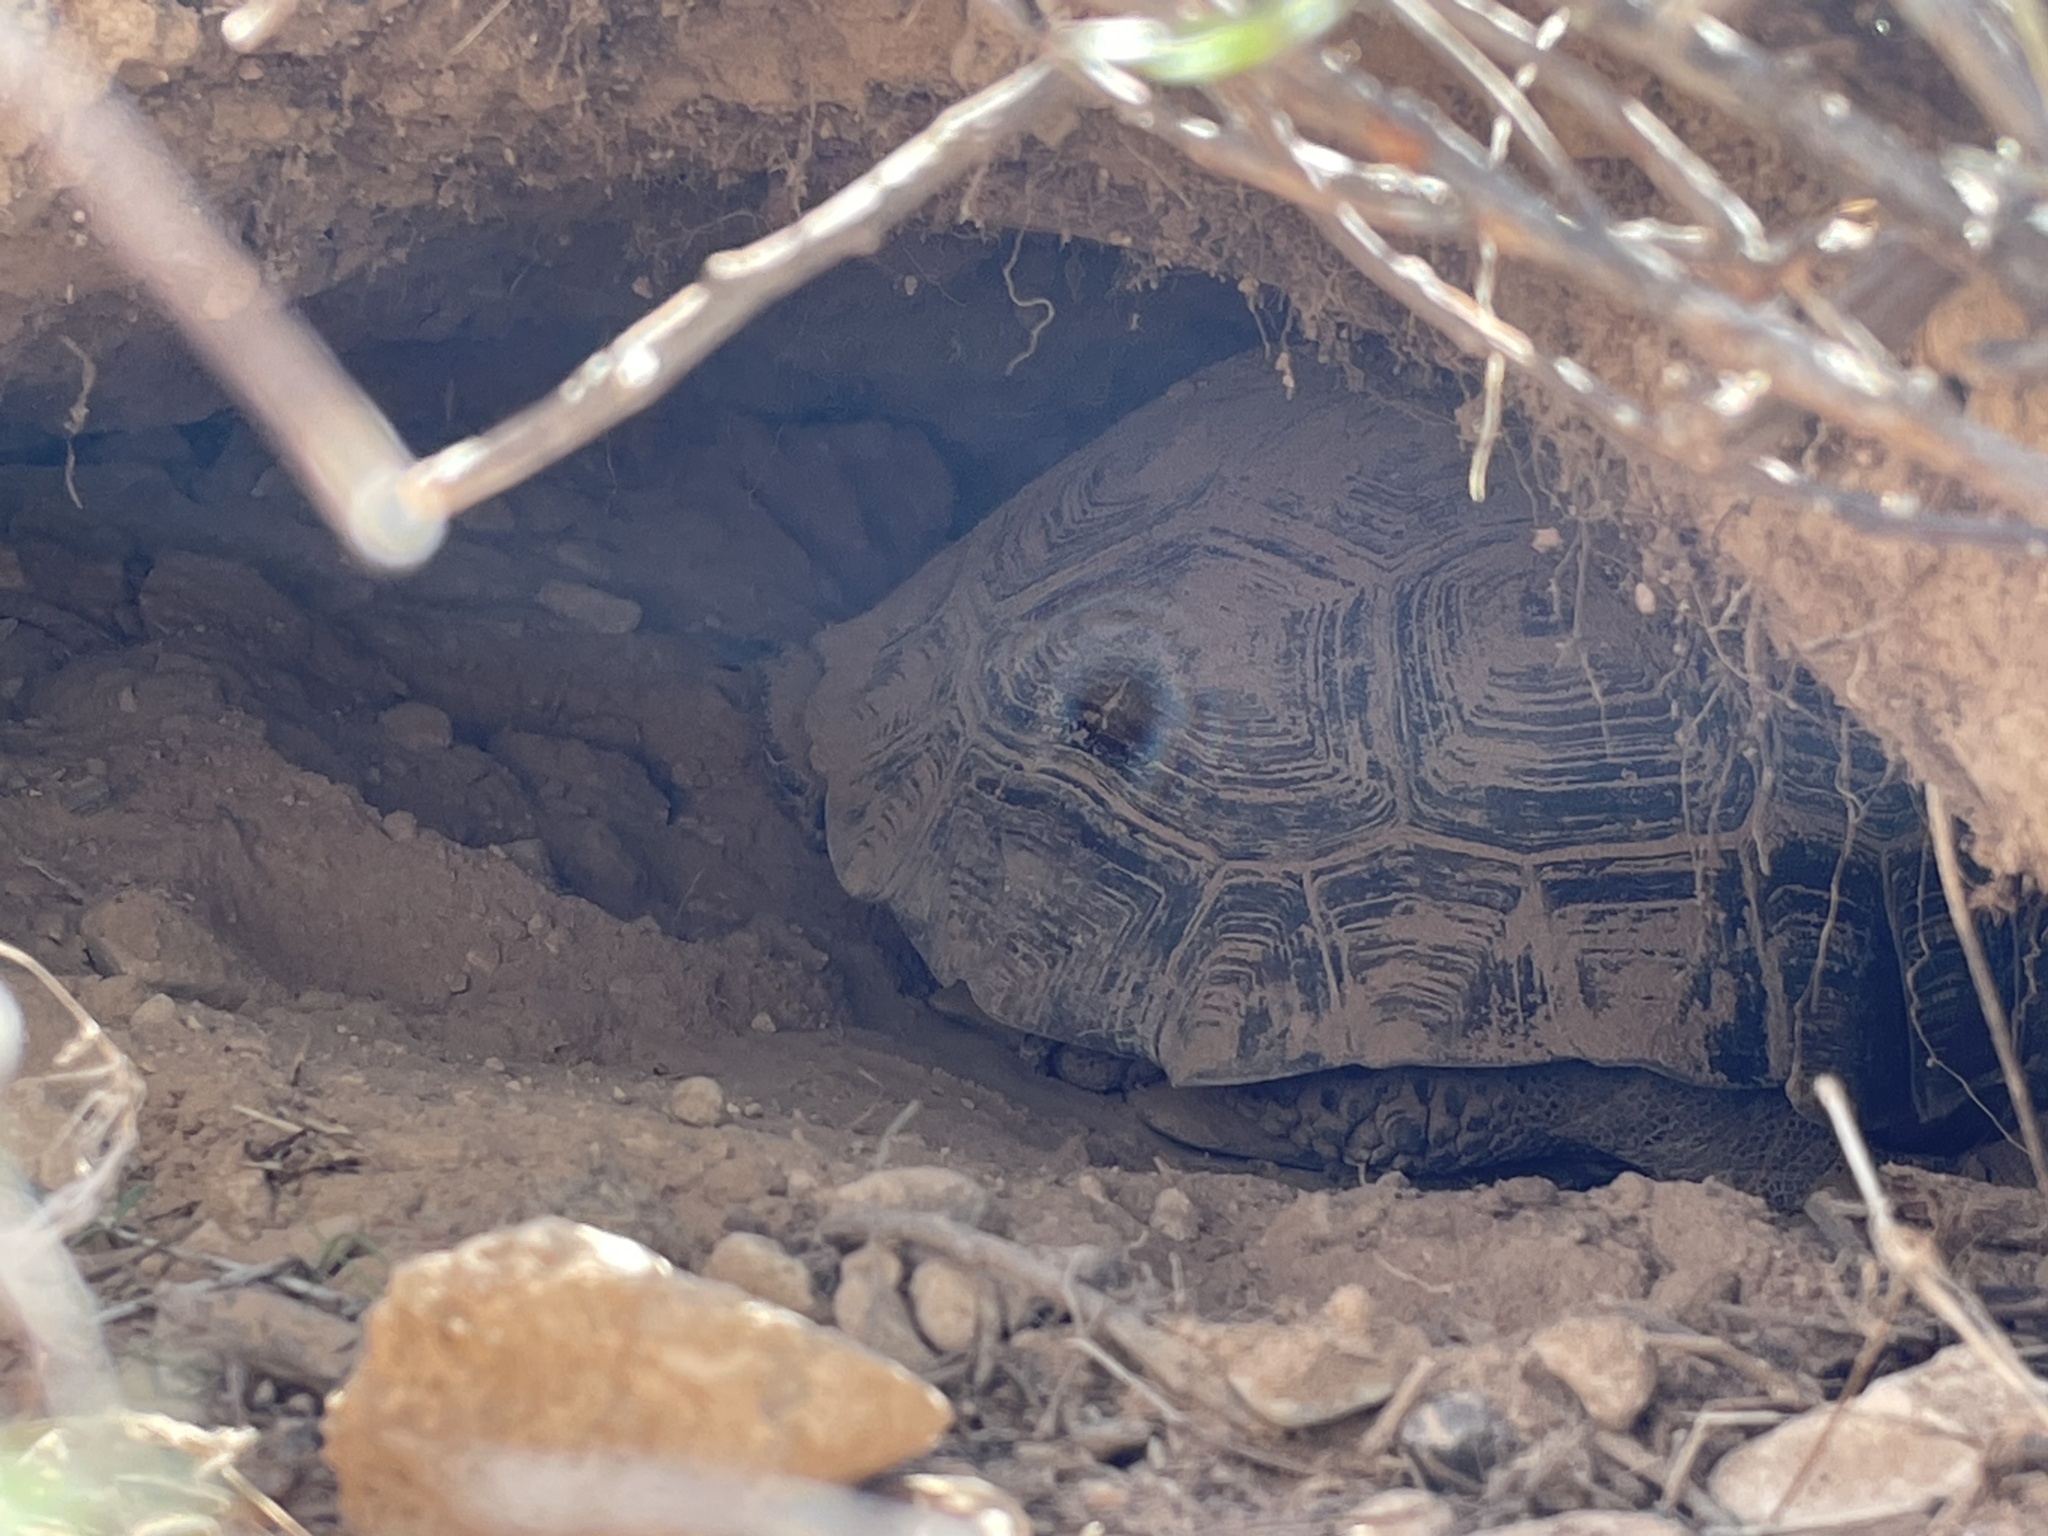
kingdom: Animalia
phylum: Chordata
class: Testudines
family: Testudinidae
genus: Gopherus
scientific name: Gopherus agassizii
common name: Mojave desert tortoise
